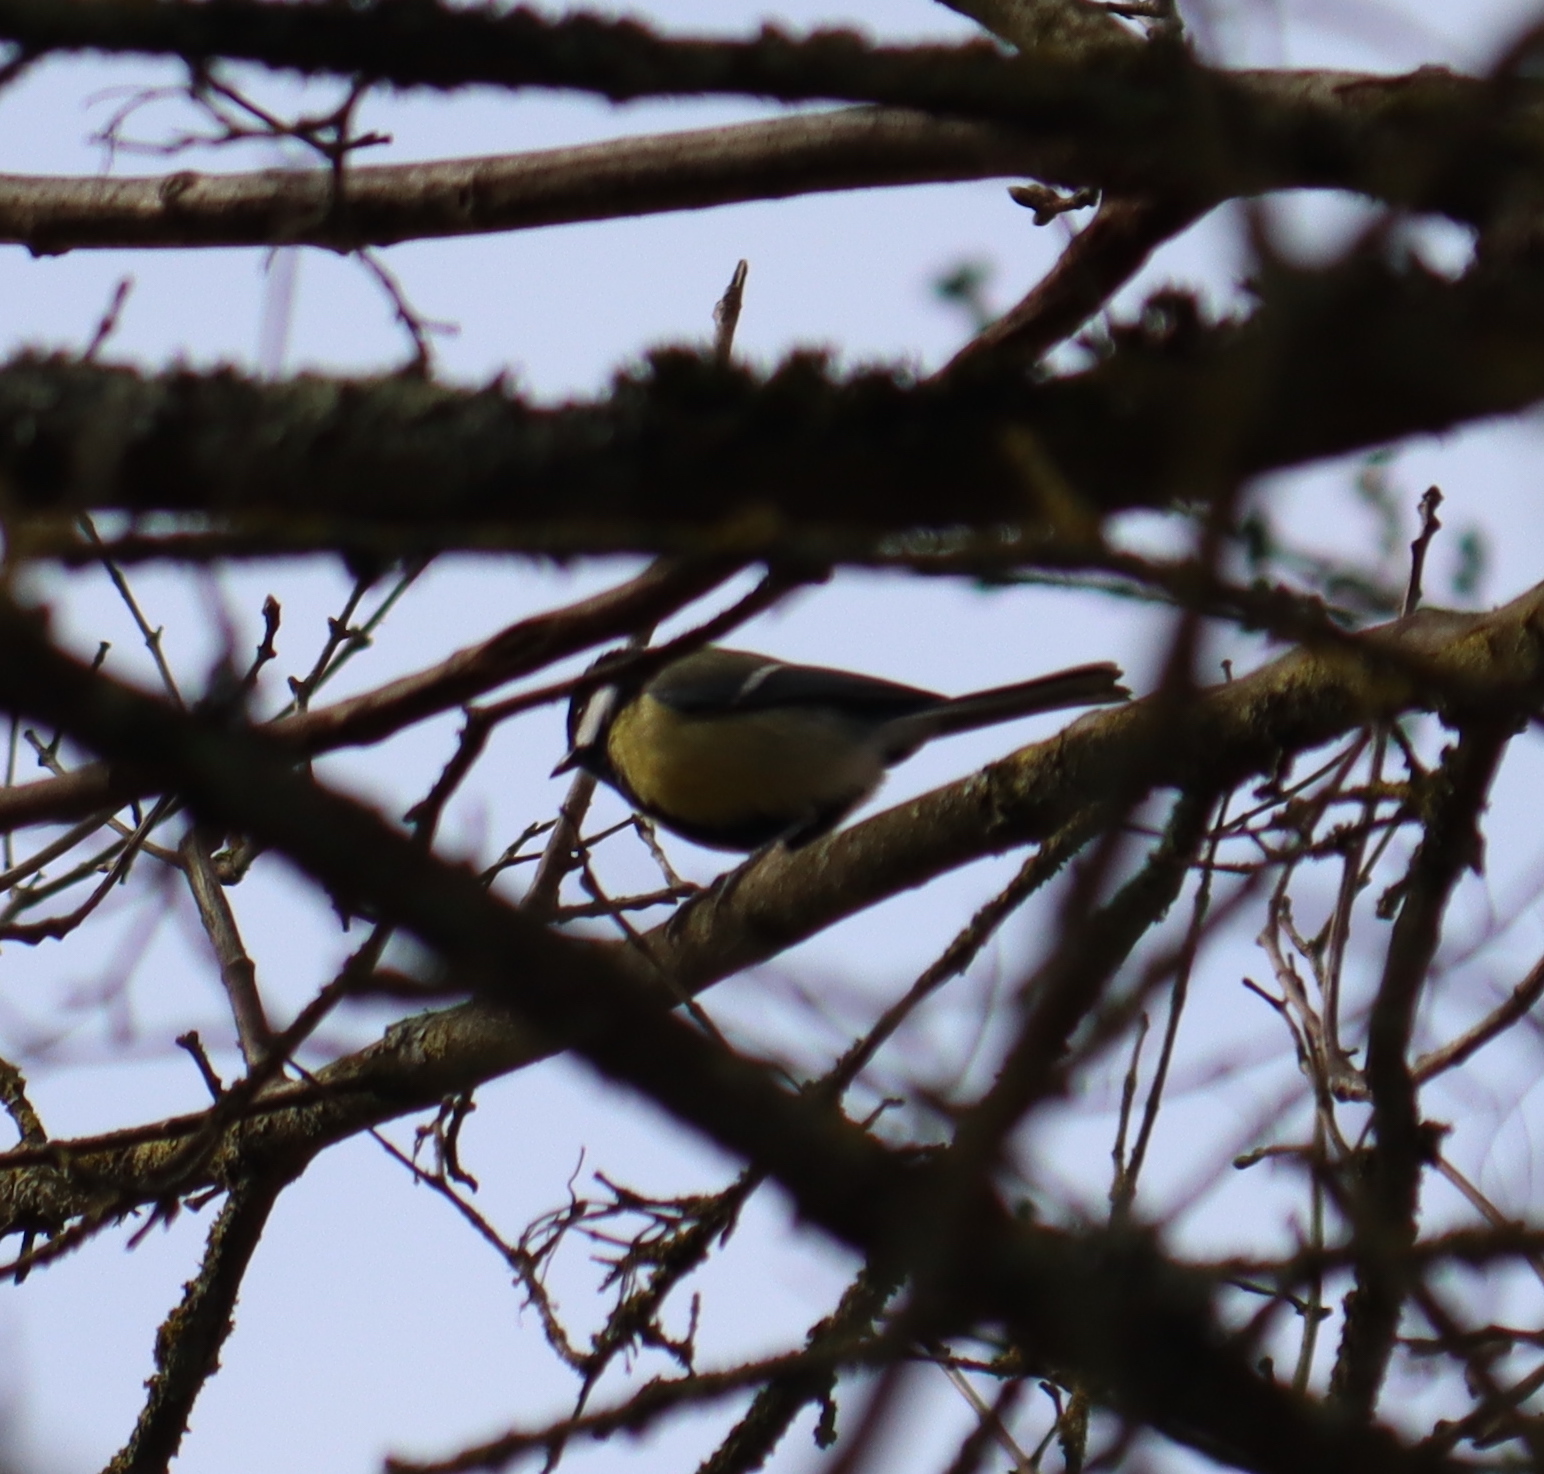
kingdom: Animalia
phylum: Chordata
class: Aves
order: Passeriformes
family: Paridae
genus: Parus
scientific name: Parus major
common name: Great tit
